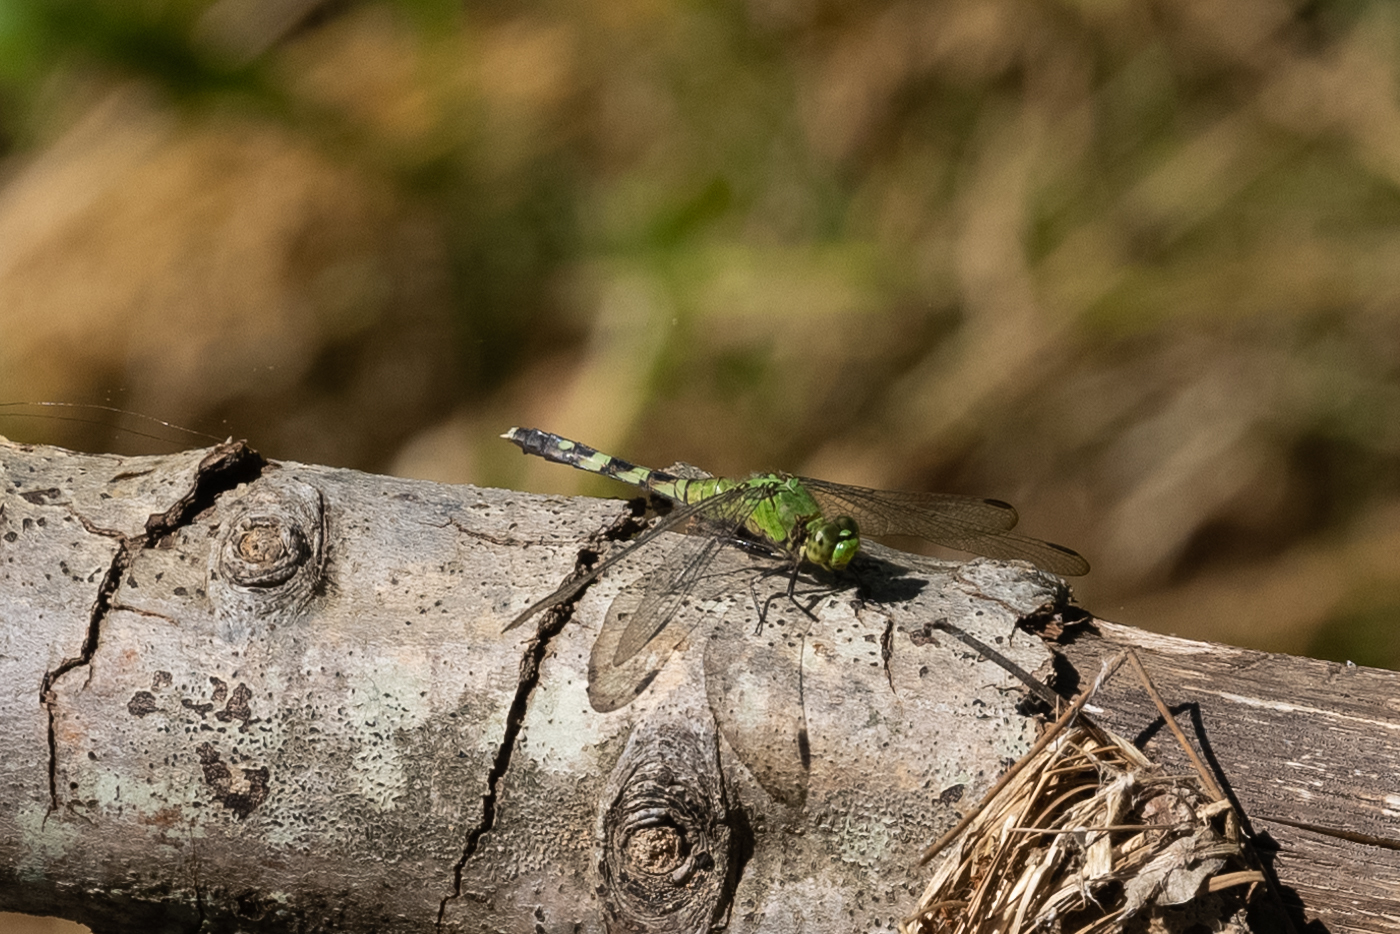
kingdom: Animalia
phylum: Arthropoda
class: Insecta
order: Odonata
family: Libellulidae
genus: Erythemis
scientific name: Erythemis simplicicollis
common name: Eastern pondhawk
